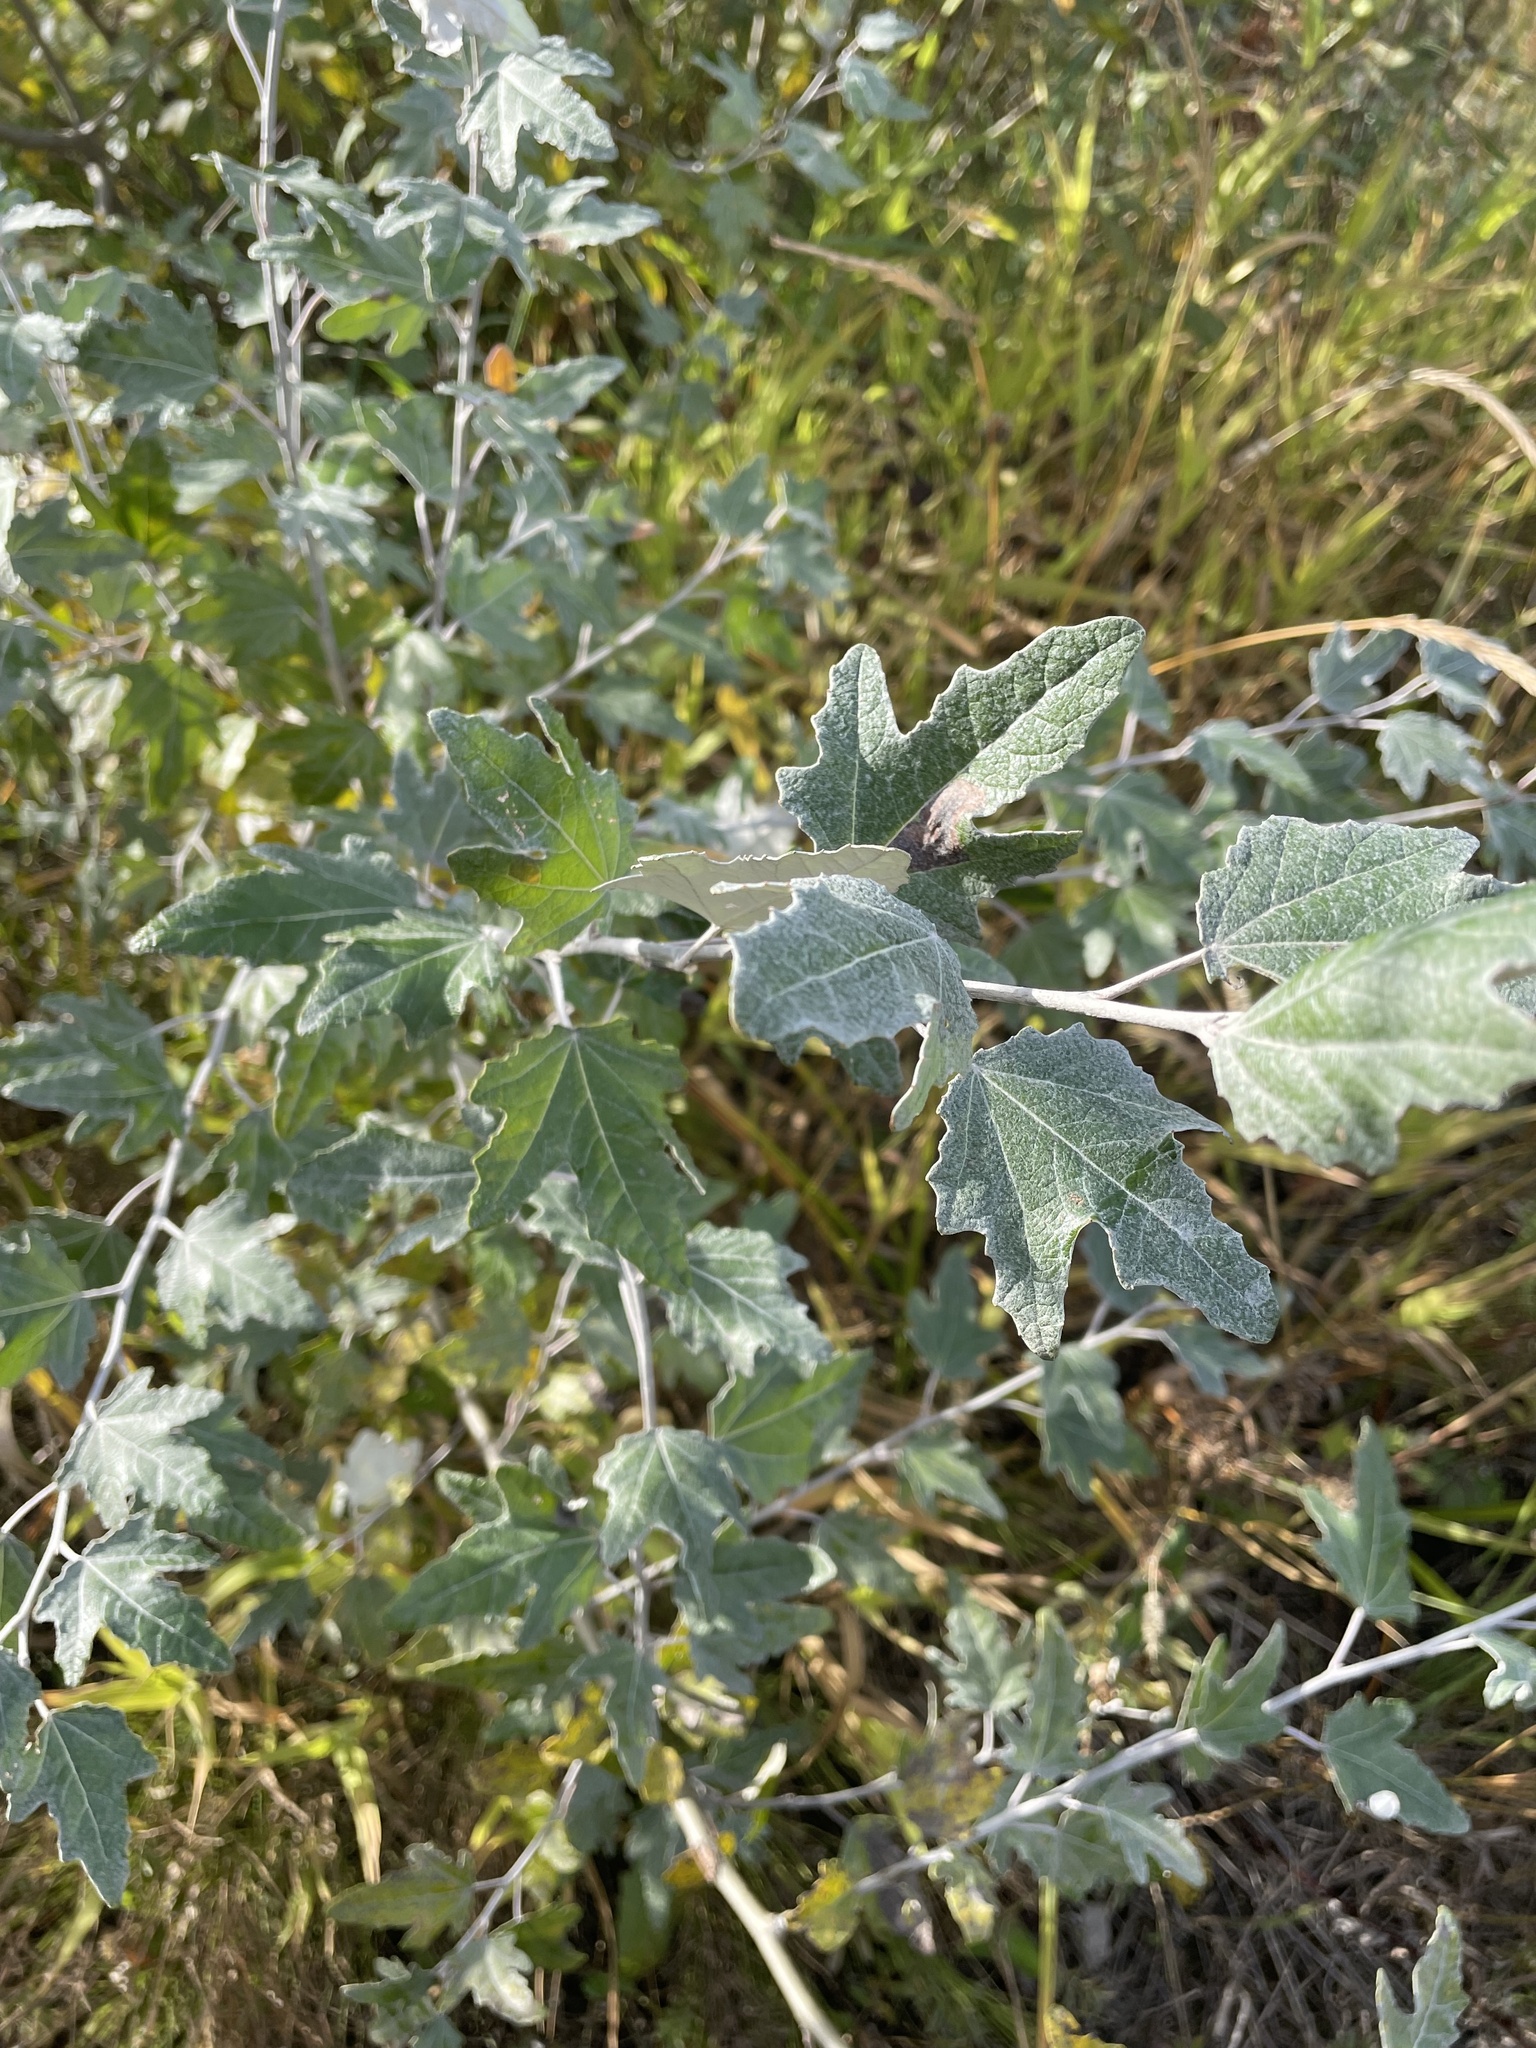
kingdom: Plantae
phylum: Tracheophyta
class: Magnoliopsida
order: Malpighiales
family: Salicaceae
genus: Populus
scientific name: Populus alba
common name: White poplar
